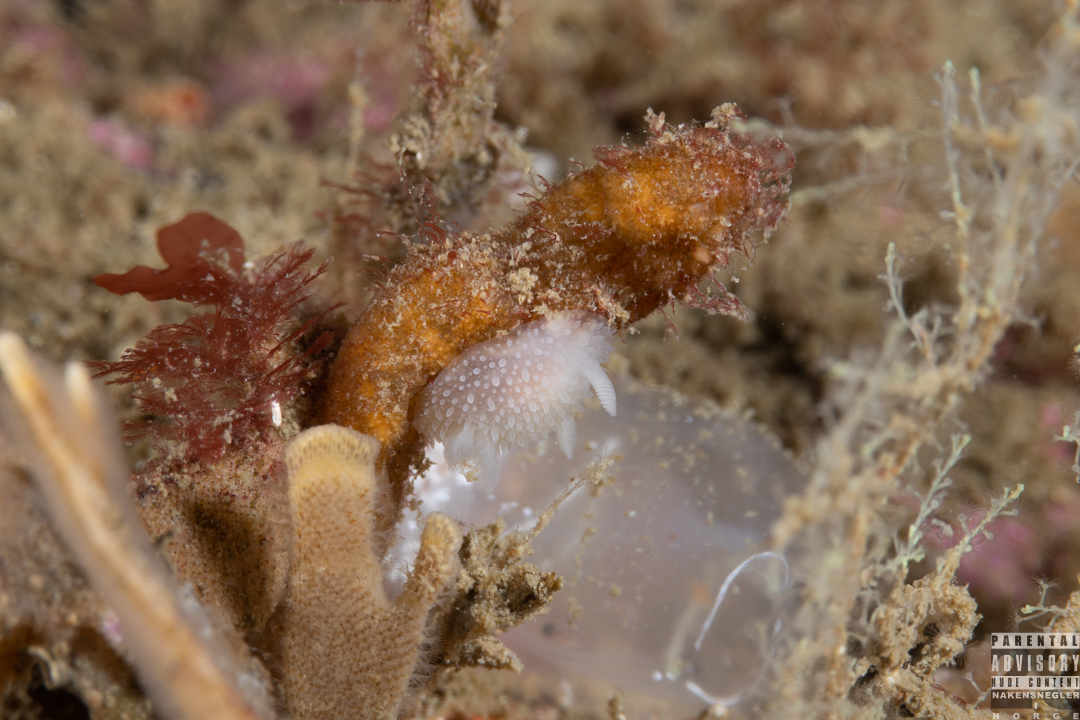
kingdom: Animalia
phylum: Mollusca
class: Gastropoda
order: Nudibranchia
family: Onchidorididae
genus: Acanthodoris
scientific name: Acanthodoris pilosa
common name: Hairy spiny doris
